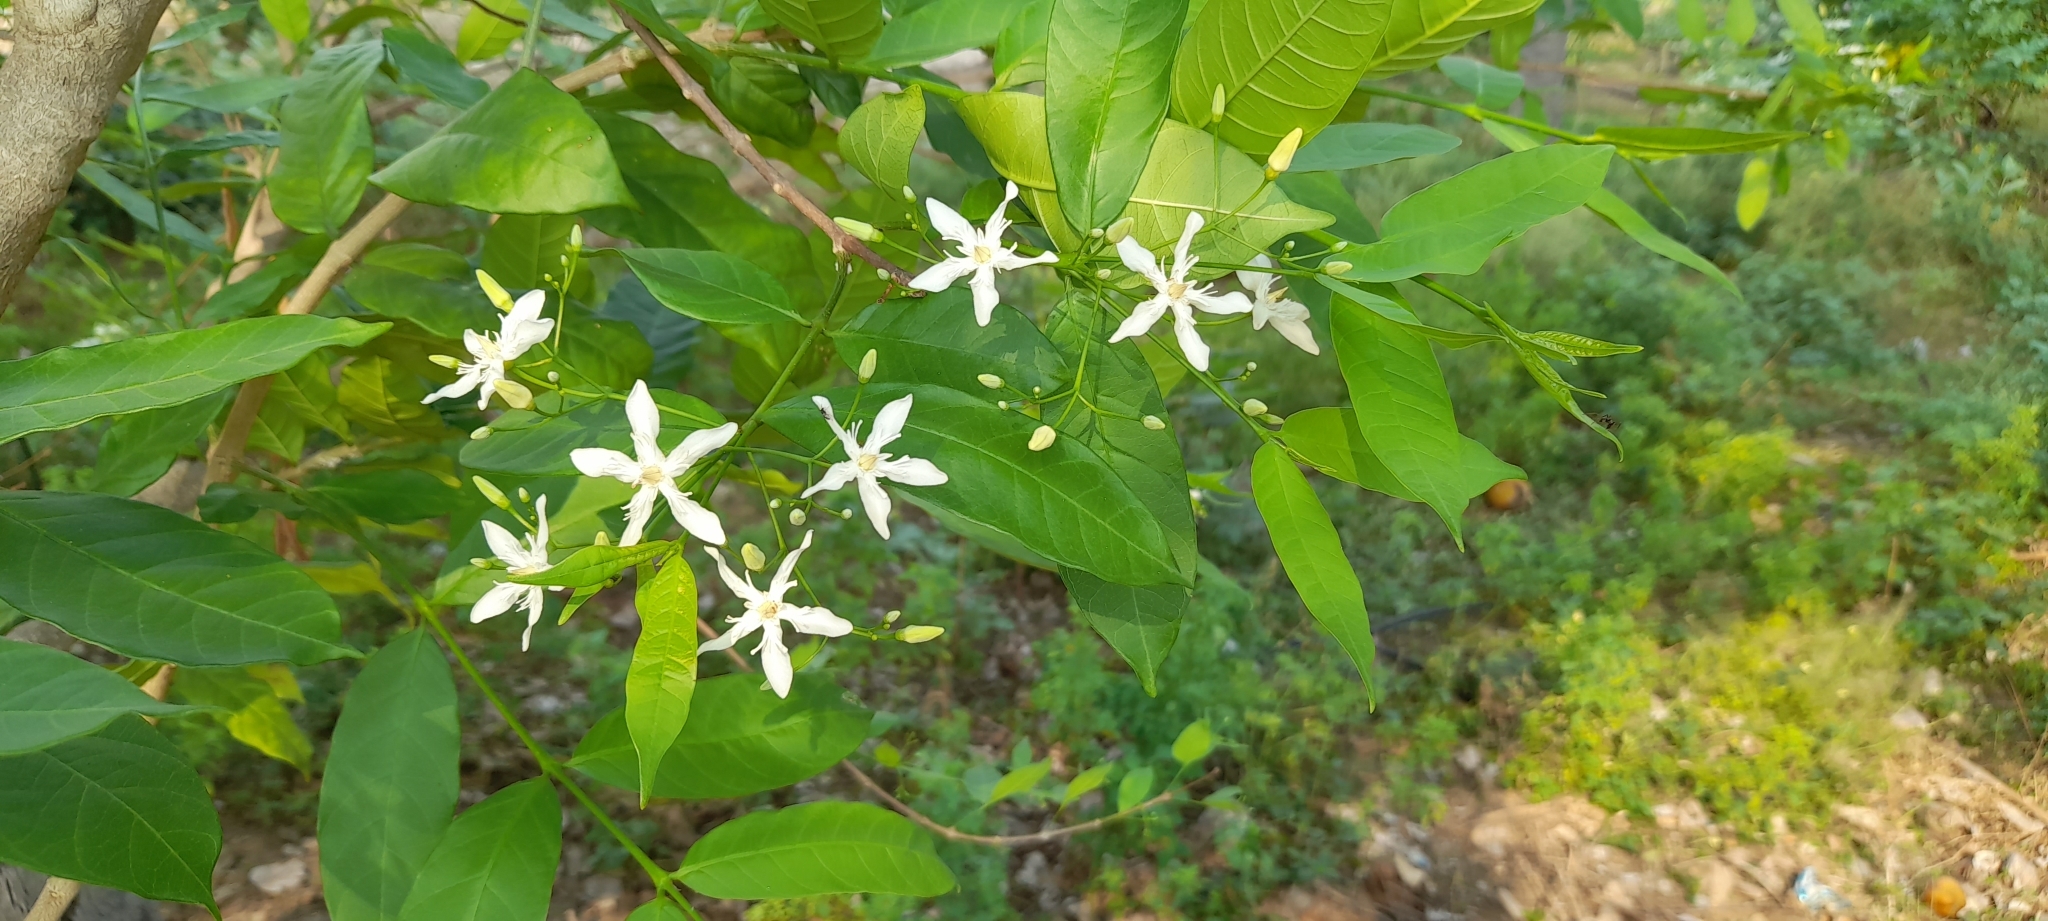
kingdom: Plantae
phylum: Tracheophyta
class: Magnoliopsida
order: Gentianales
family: Apocynaceae
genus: Wrightia
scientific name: Wrightia tinctoria
